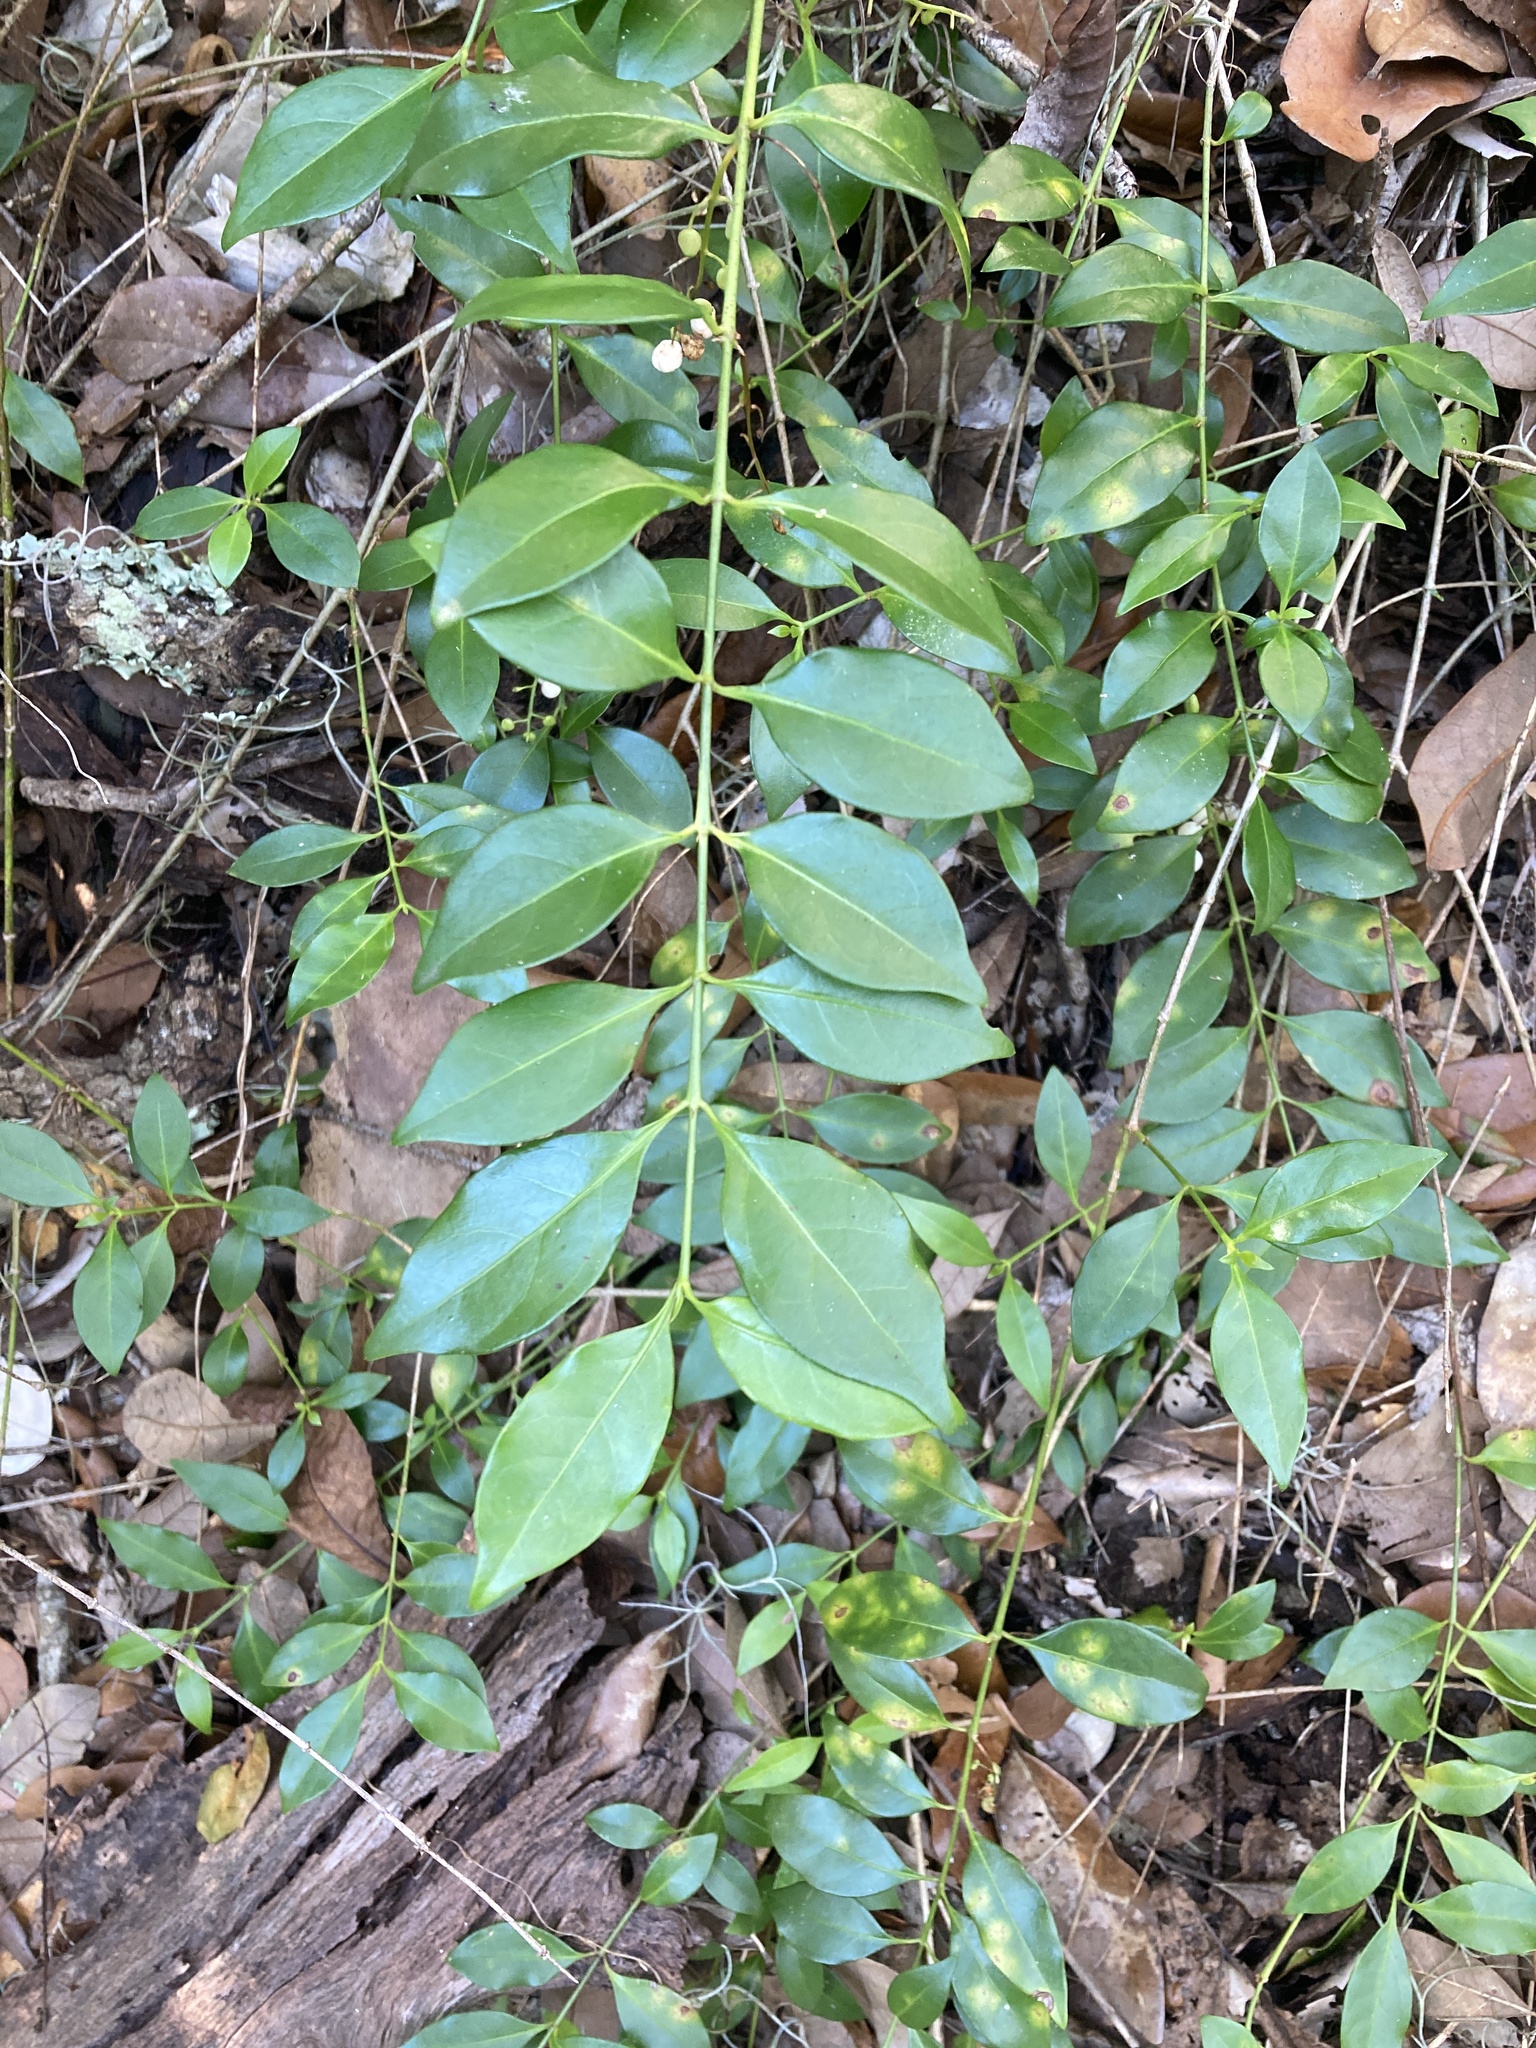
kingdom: Plantae
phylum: Tracheophyta
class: Magnoliopsida
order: Gentianales
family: Rubiaceae
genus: Chiococca
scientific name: Chiococca alba
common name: Snowberry
